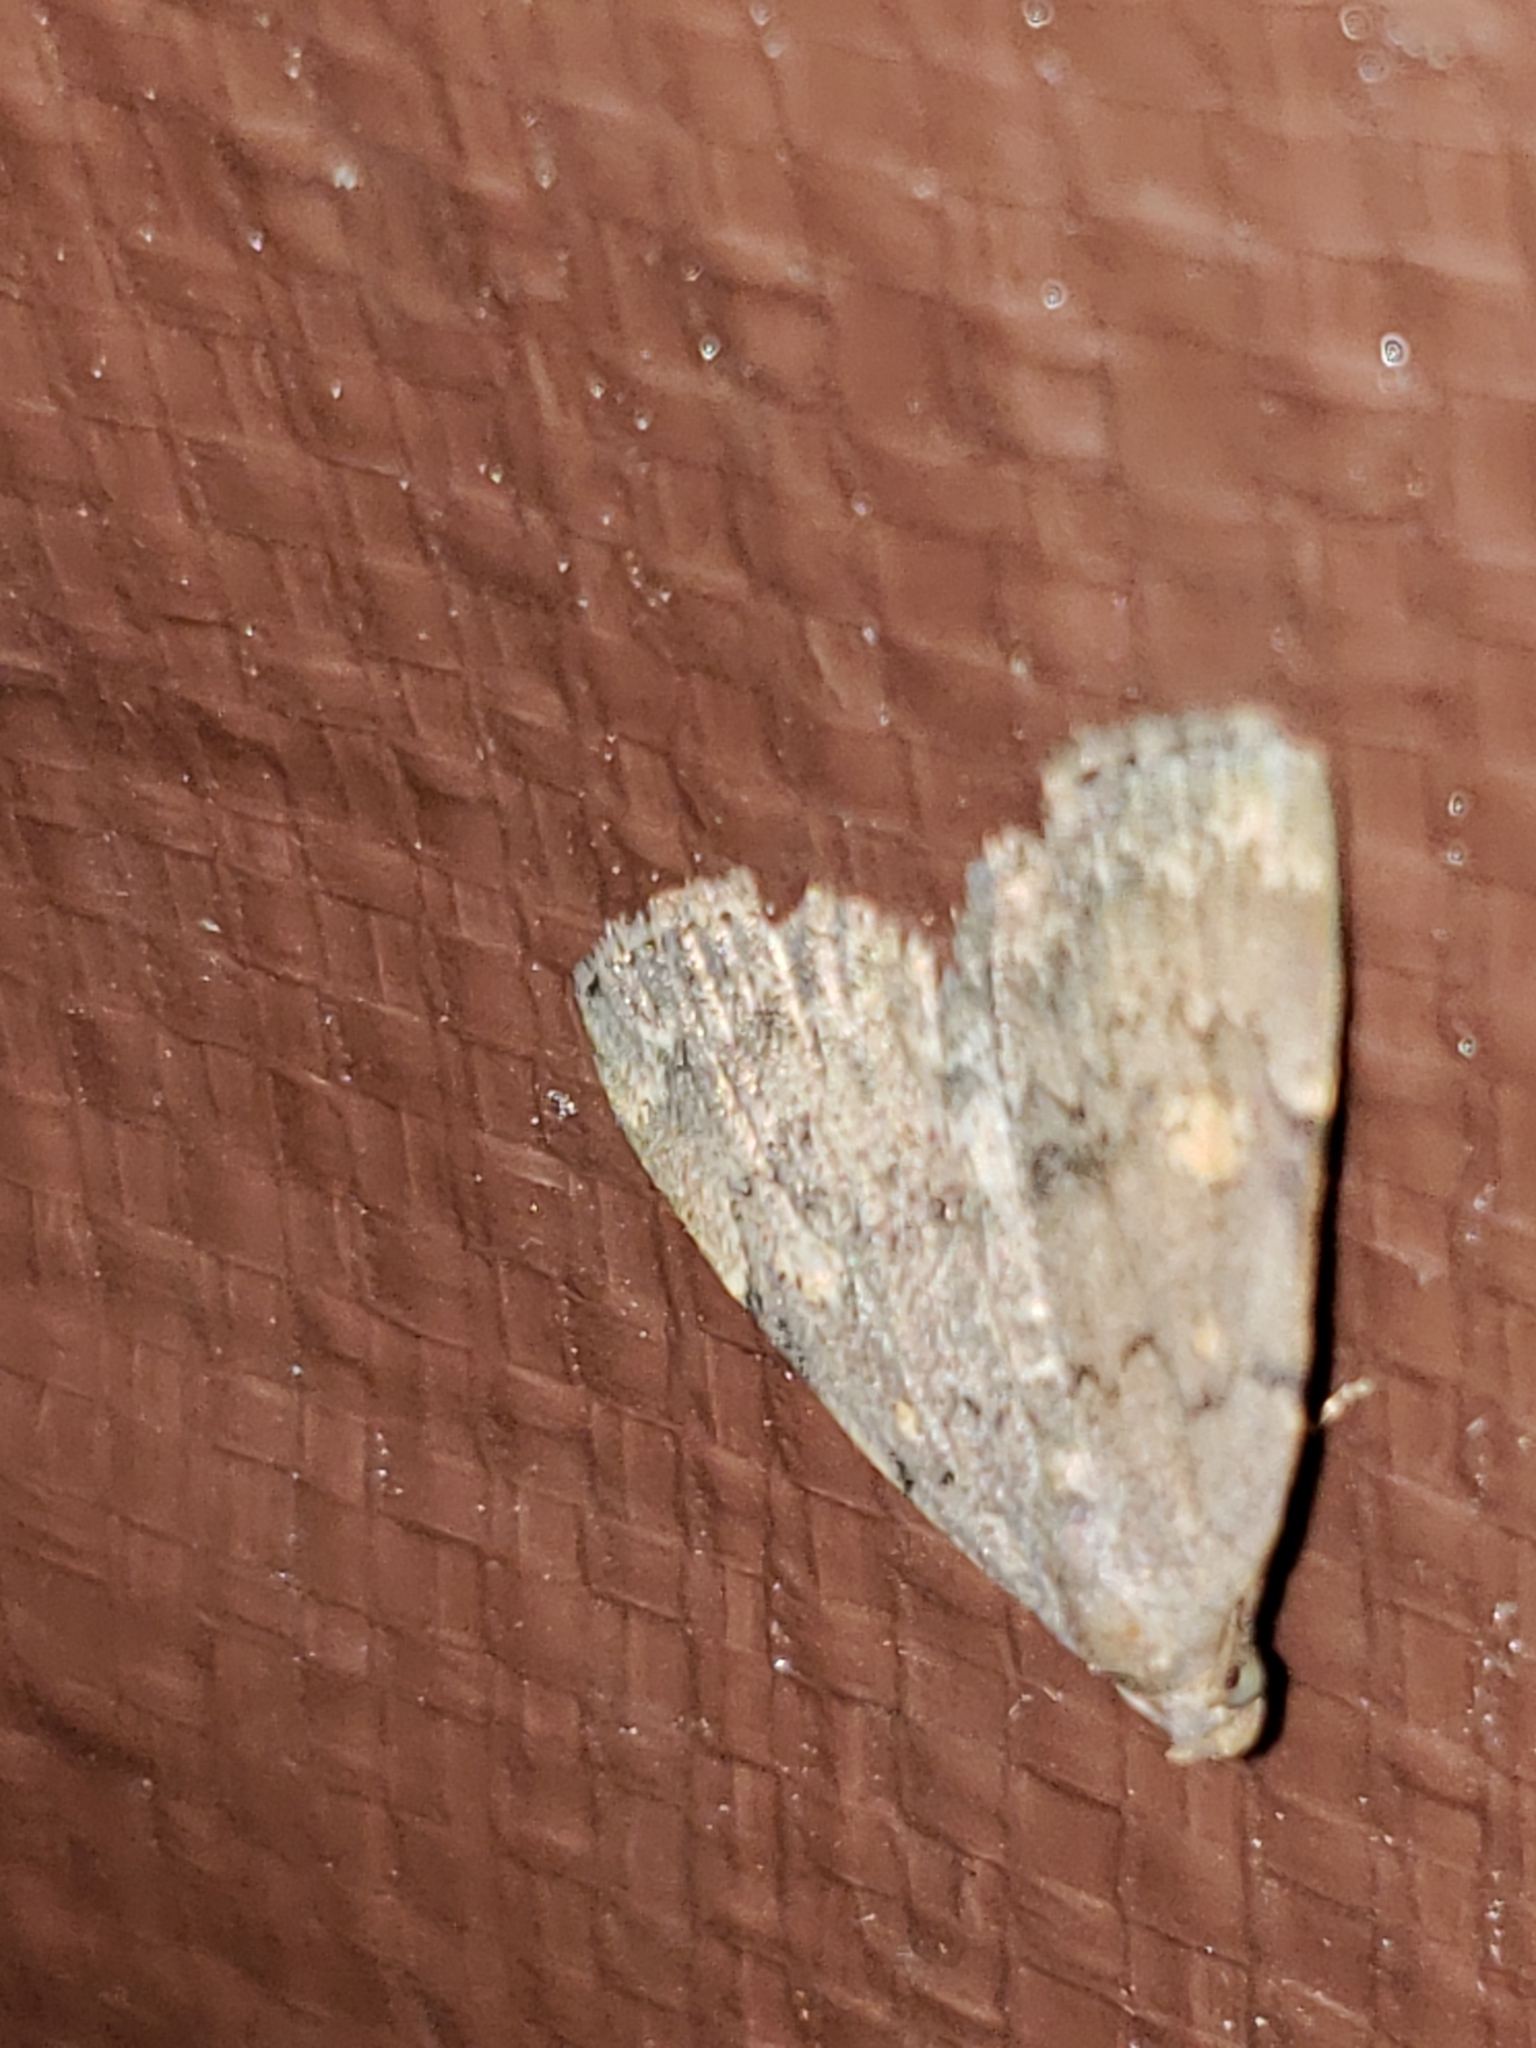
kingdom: Animalia
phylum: Arthropoda
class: Insecta
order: Lepidoptera
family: Erebidae
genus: Idia
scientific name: Idia aemula
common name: Common idia moth
